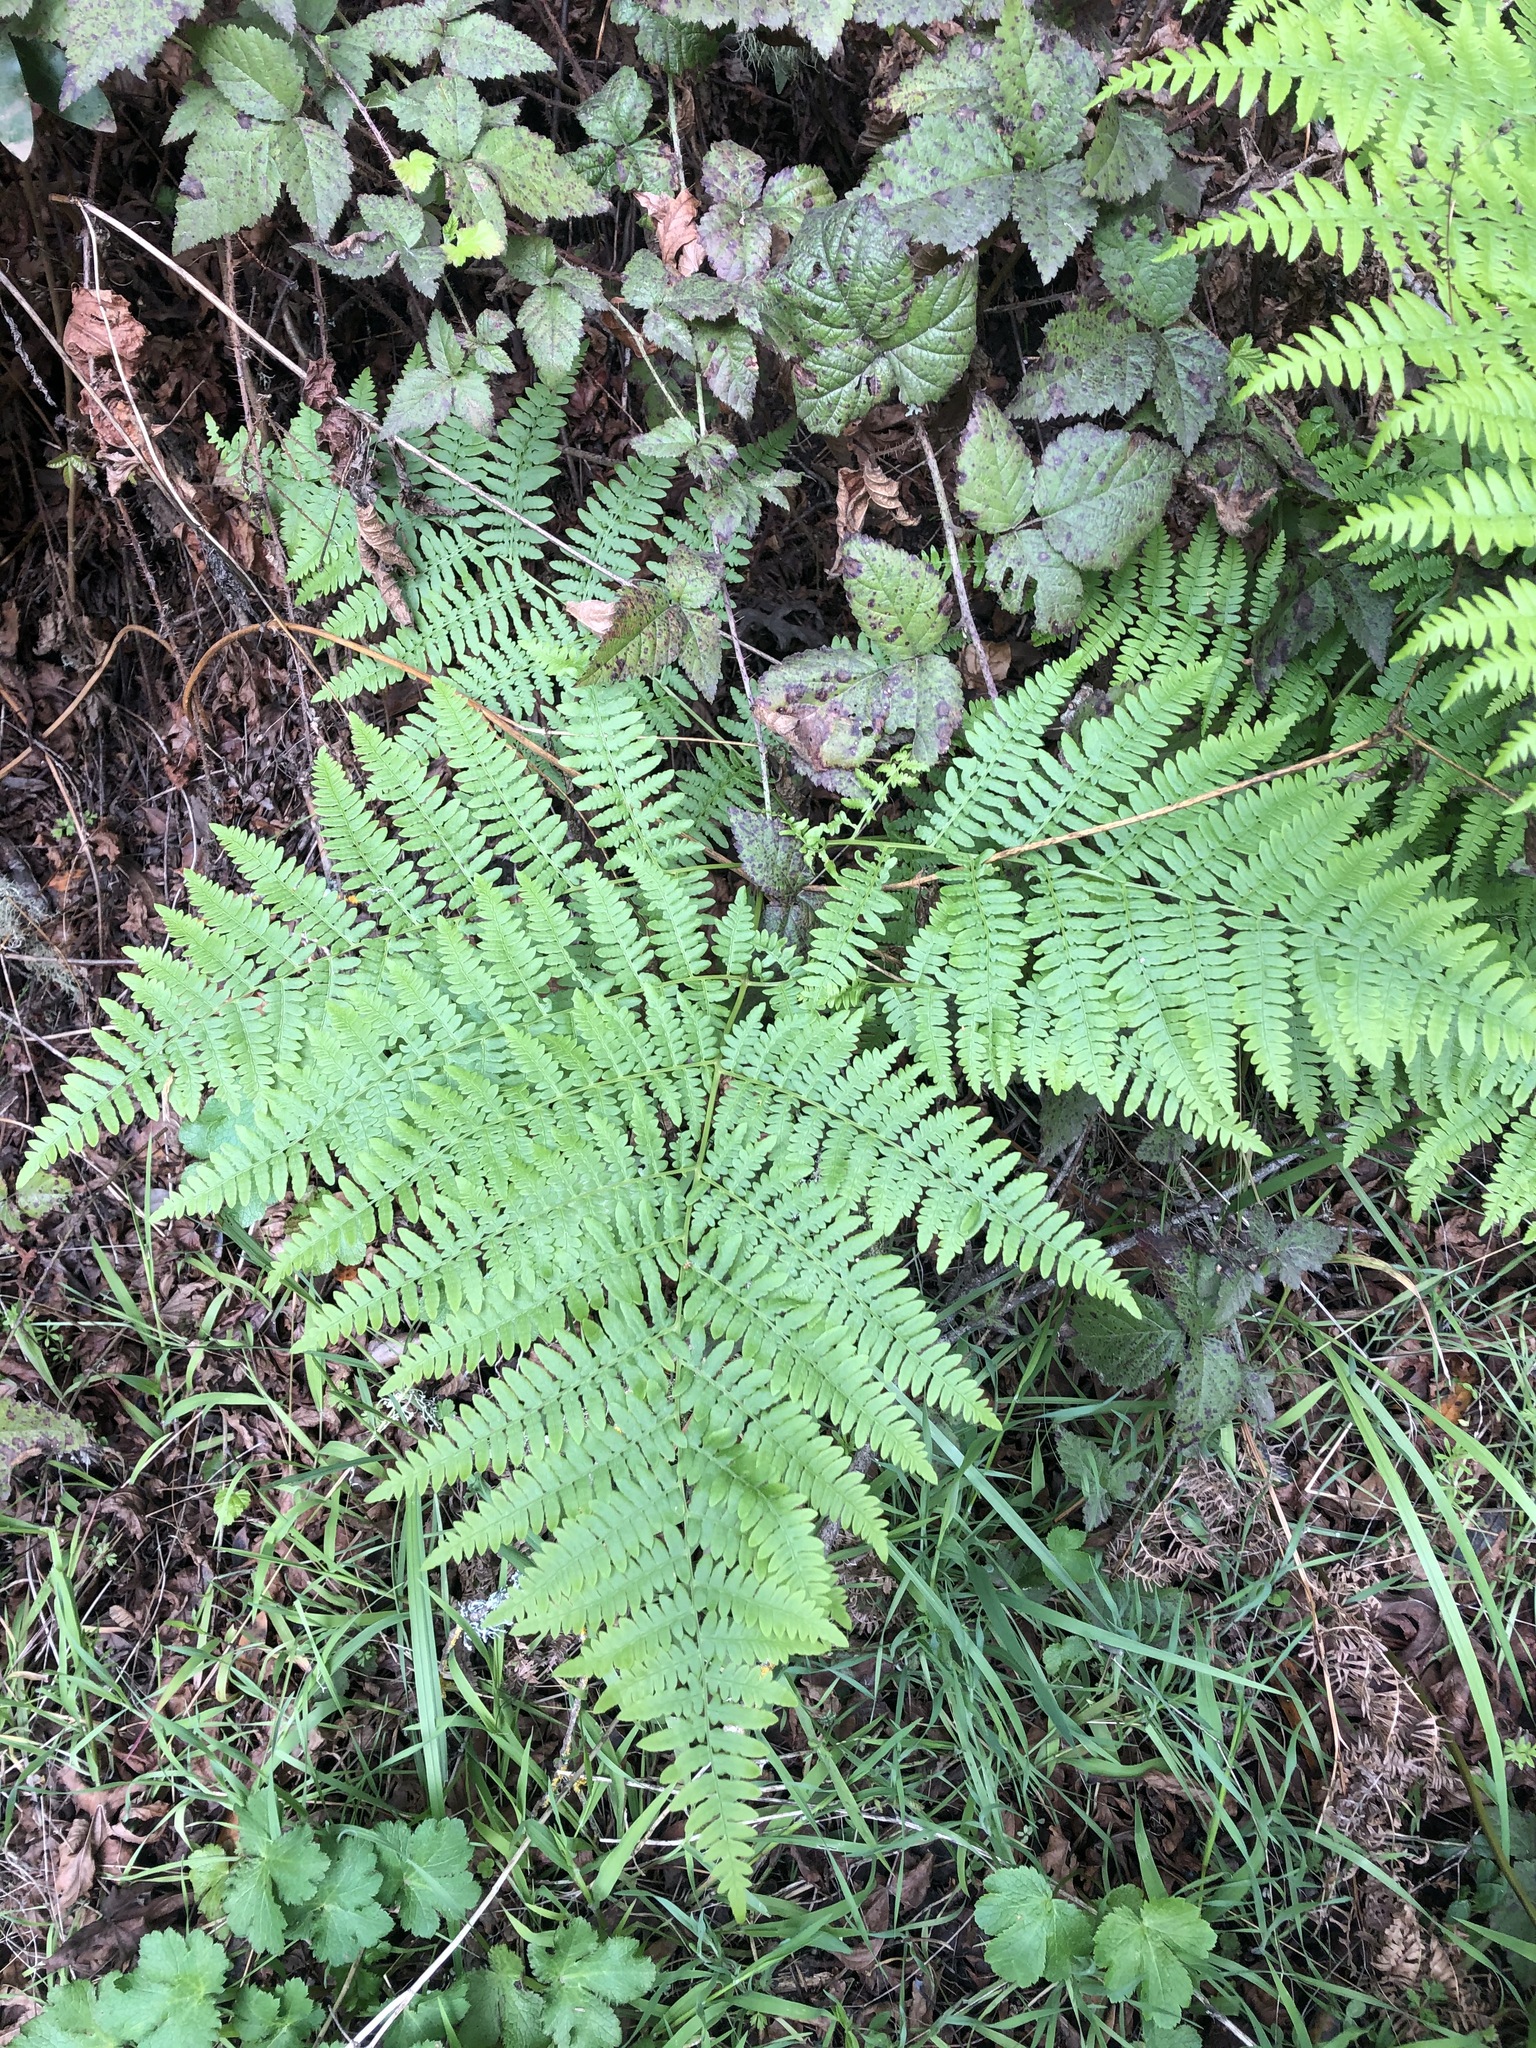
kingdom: Plantae
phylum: Tracheophyta
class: Polypodiopsida
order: Polypodiales
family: Dennstaedtiaceae
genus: Pteridium
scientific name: Pteridium aquilinum
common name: Bracken
